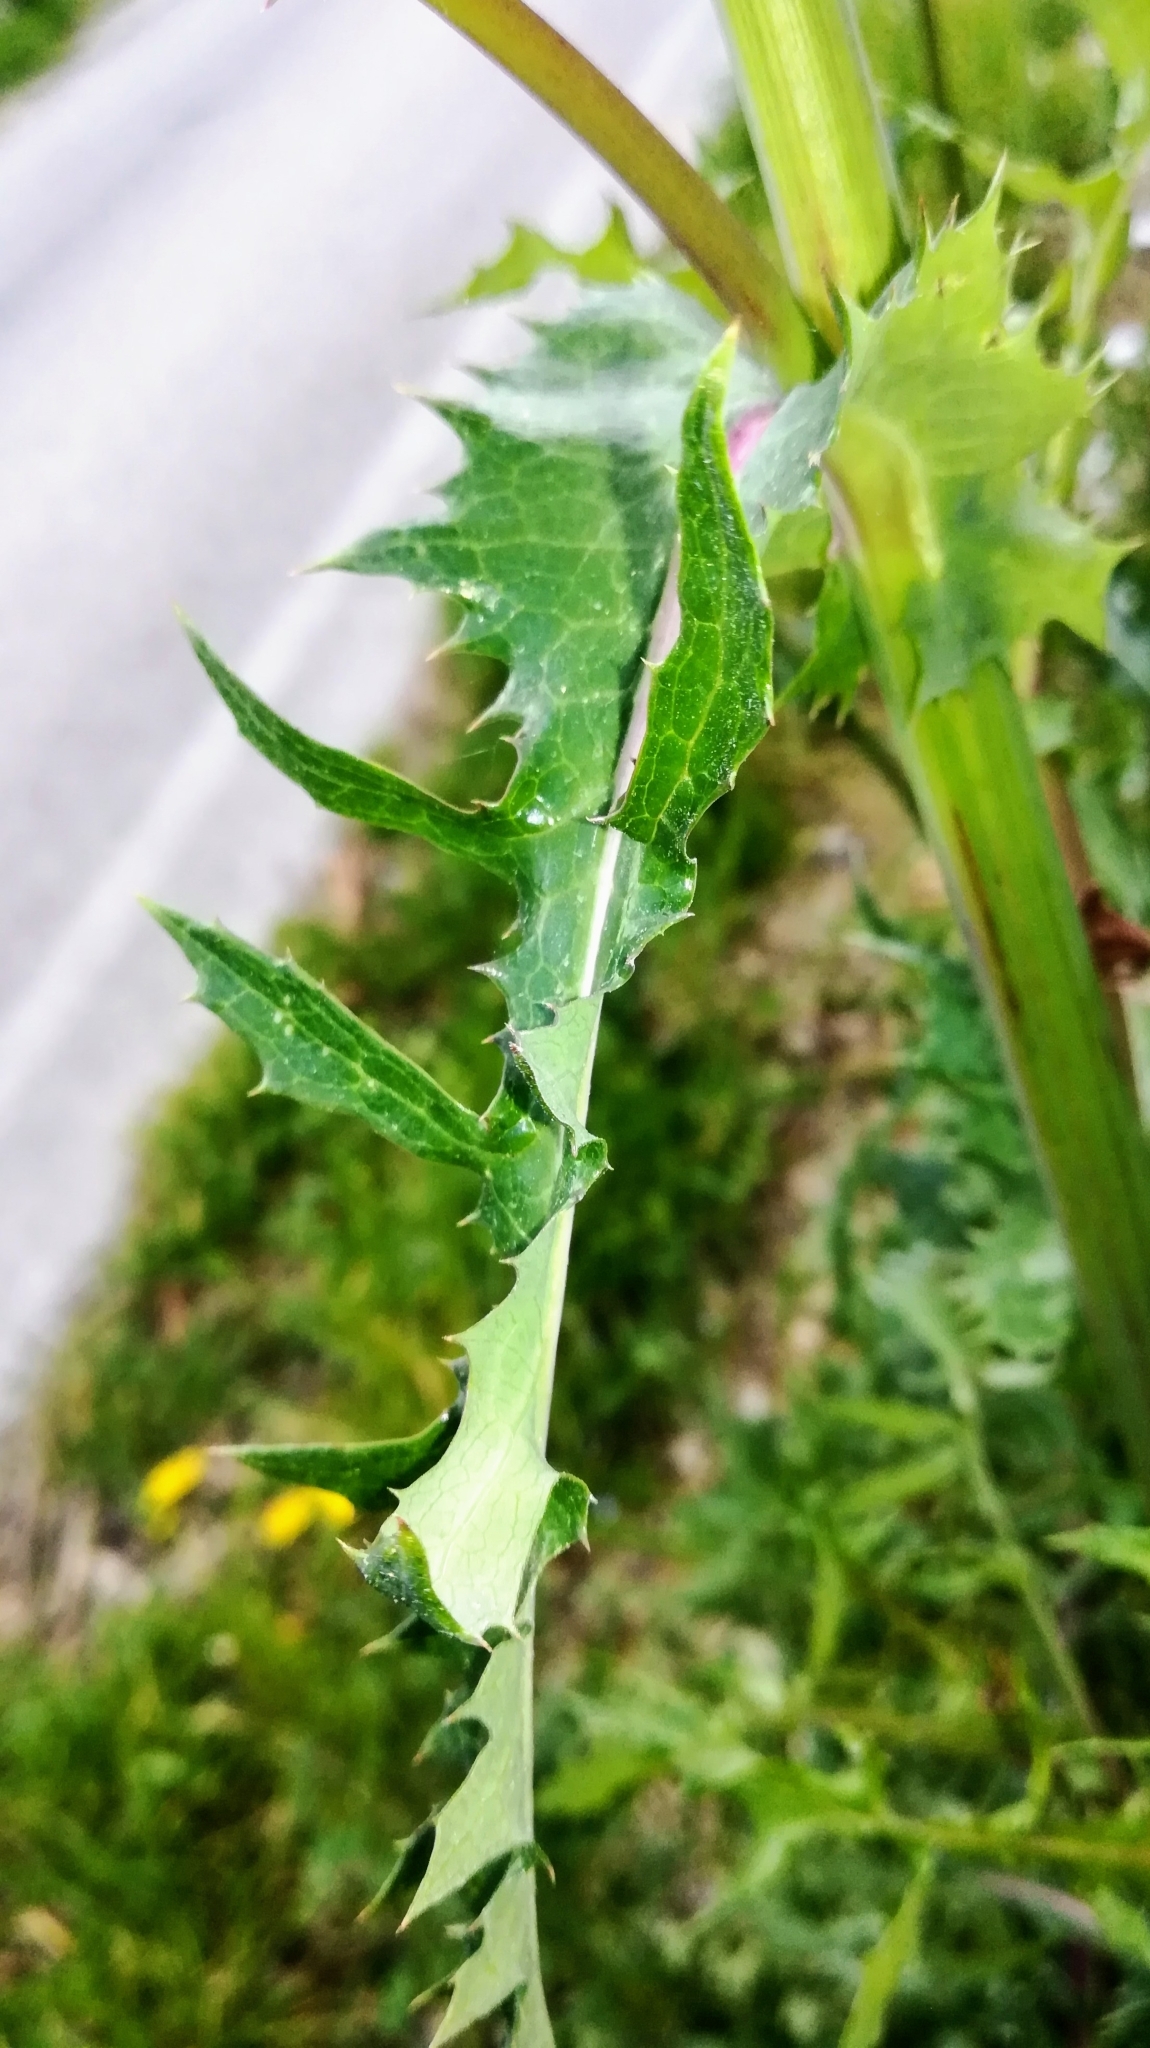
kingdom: Plantae
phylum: Tracheophyta
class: Magnoliopsida
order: Asterales
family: Asteraceae
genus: Sonchus
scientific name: Sonchus asper
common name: Prickly sow-thistle
